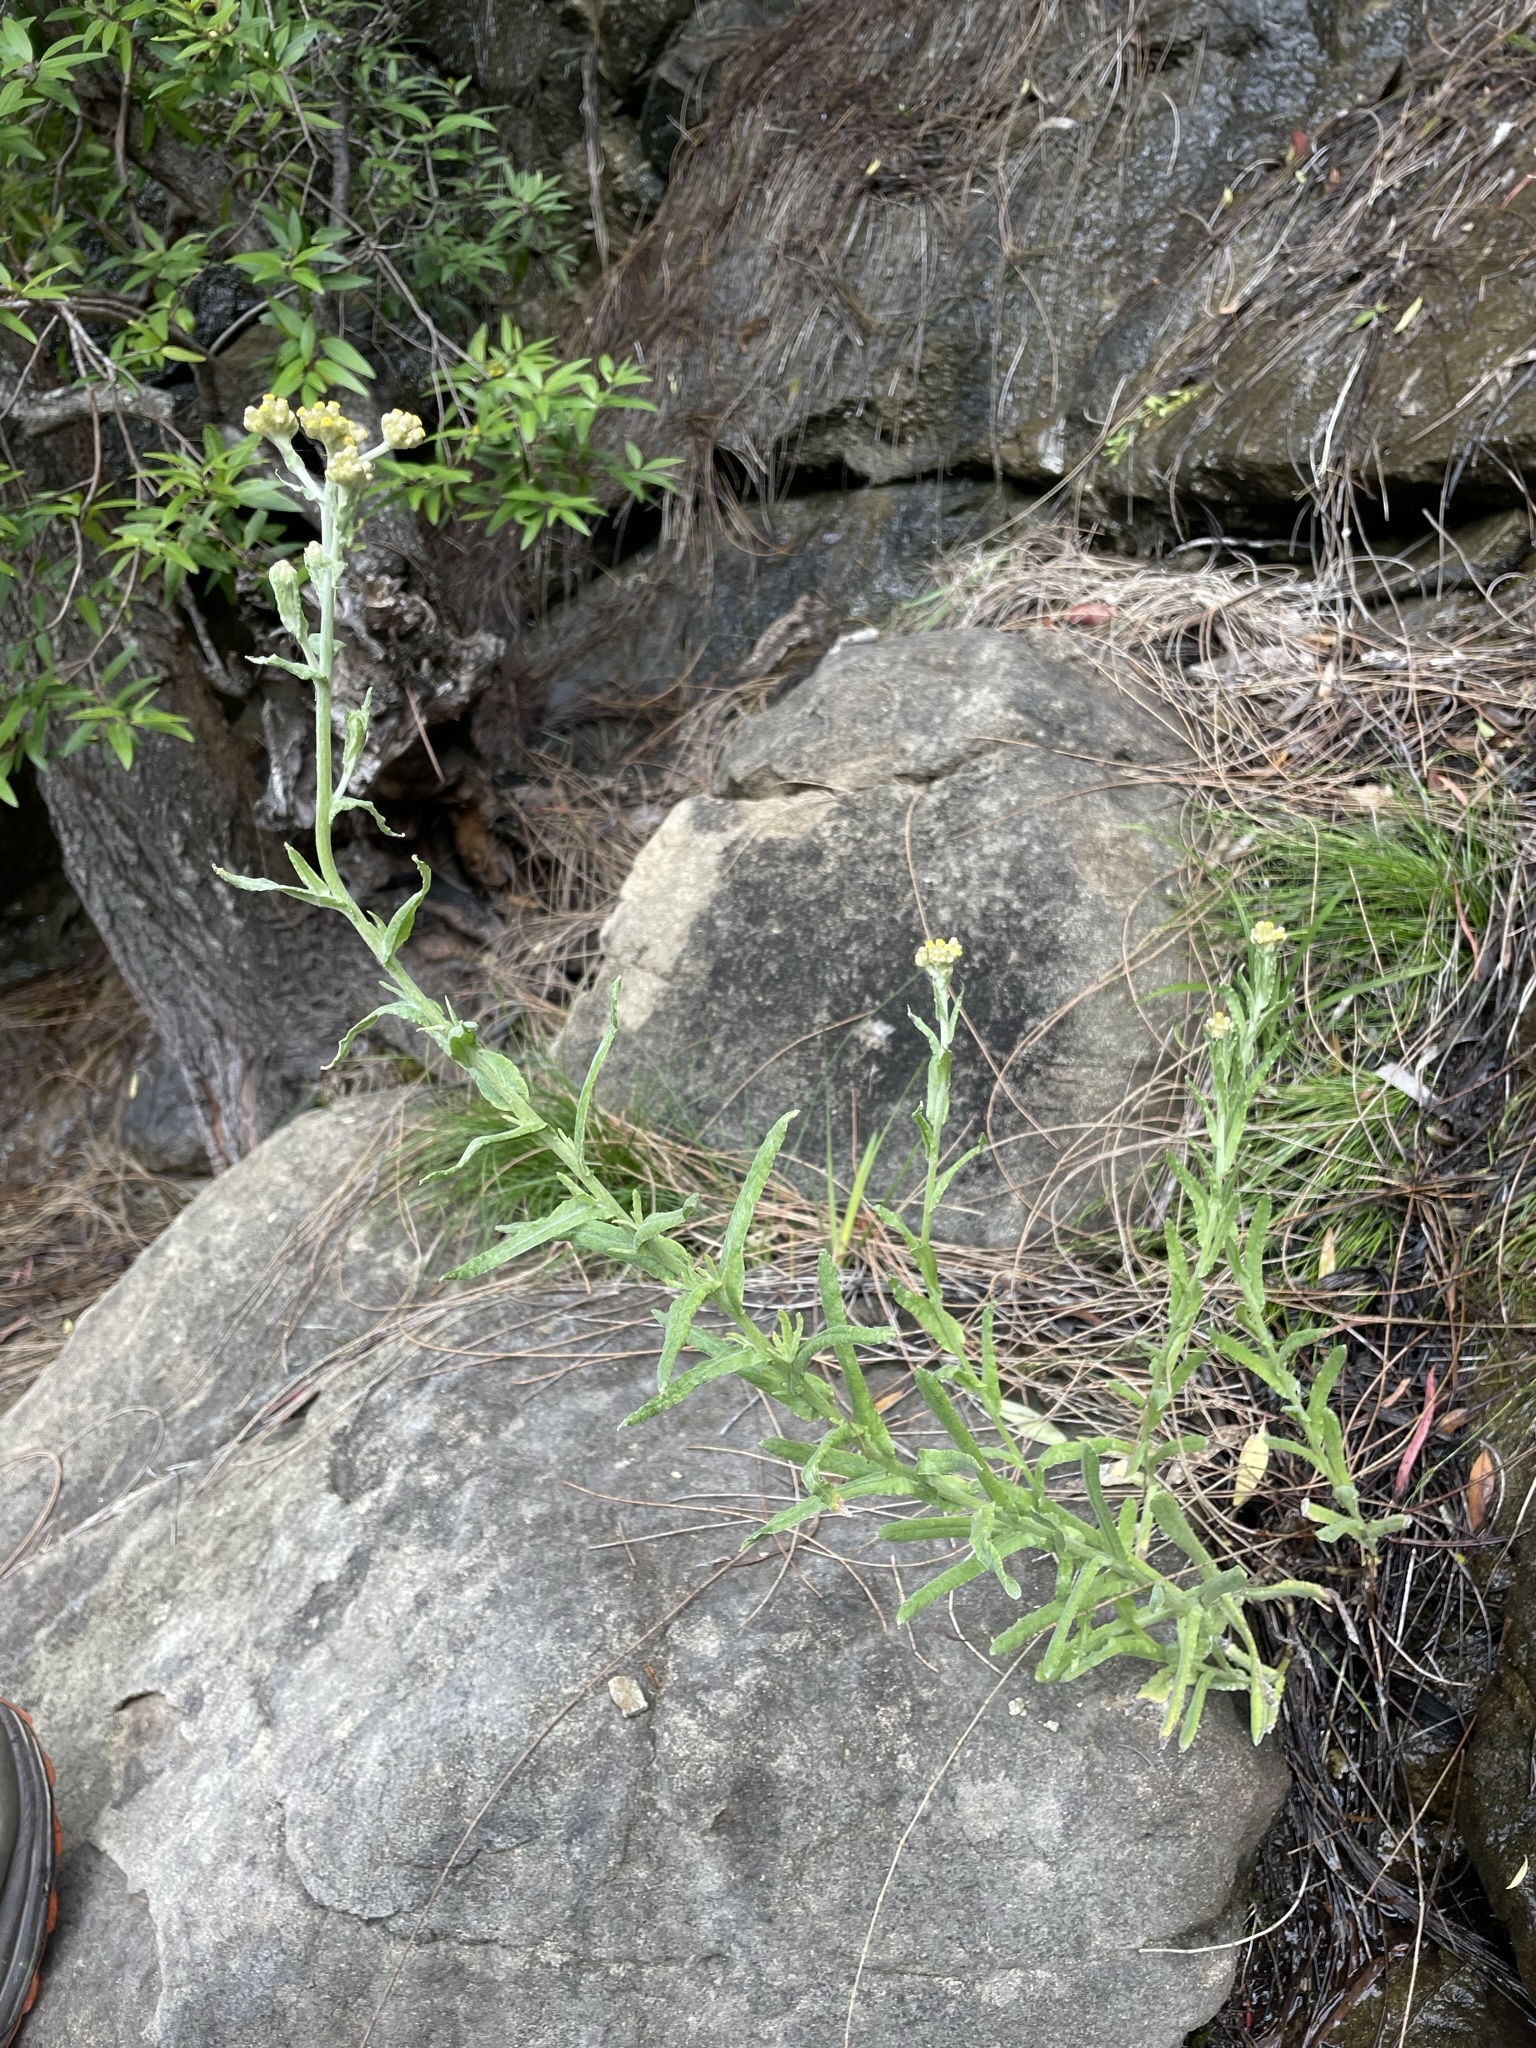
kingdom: Plantae
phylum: Tracheophyta
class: Magnoliopsida
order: Asterales
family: Asteraceae
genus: Helichrysum
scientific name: Helichrysum luteoalbum
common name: Daisy
